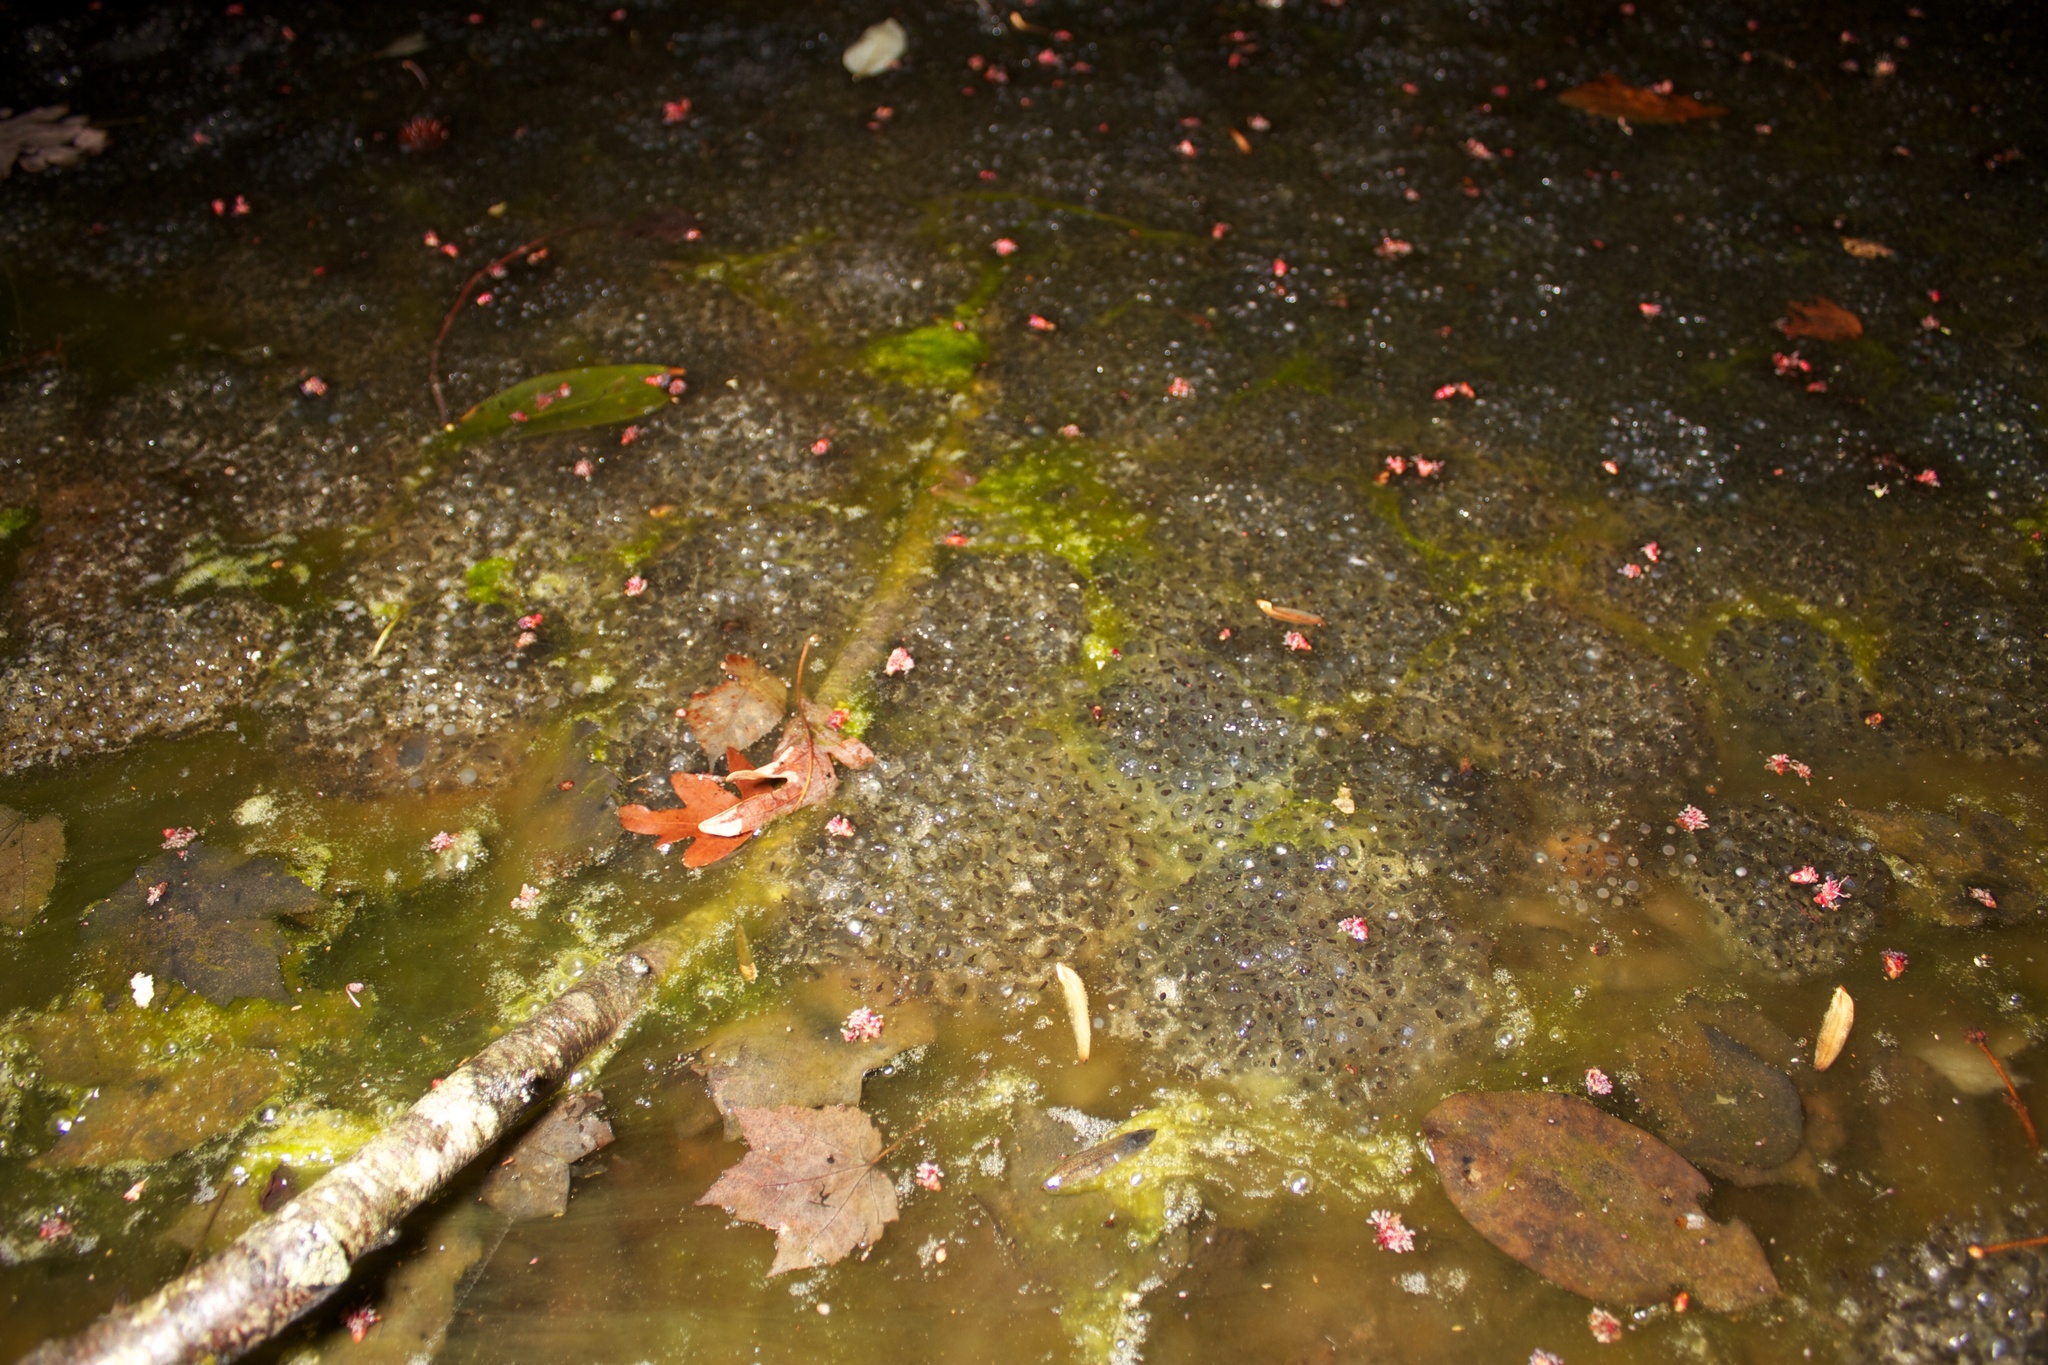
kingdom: Animalia
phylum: Chordata
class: Amphibia
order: Anura
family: Ranidae
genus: Lithobates
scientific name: Lithobates sylvaticus
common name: Wood frog
